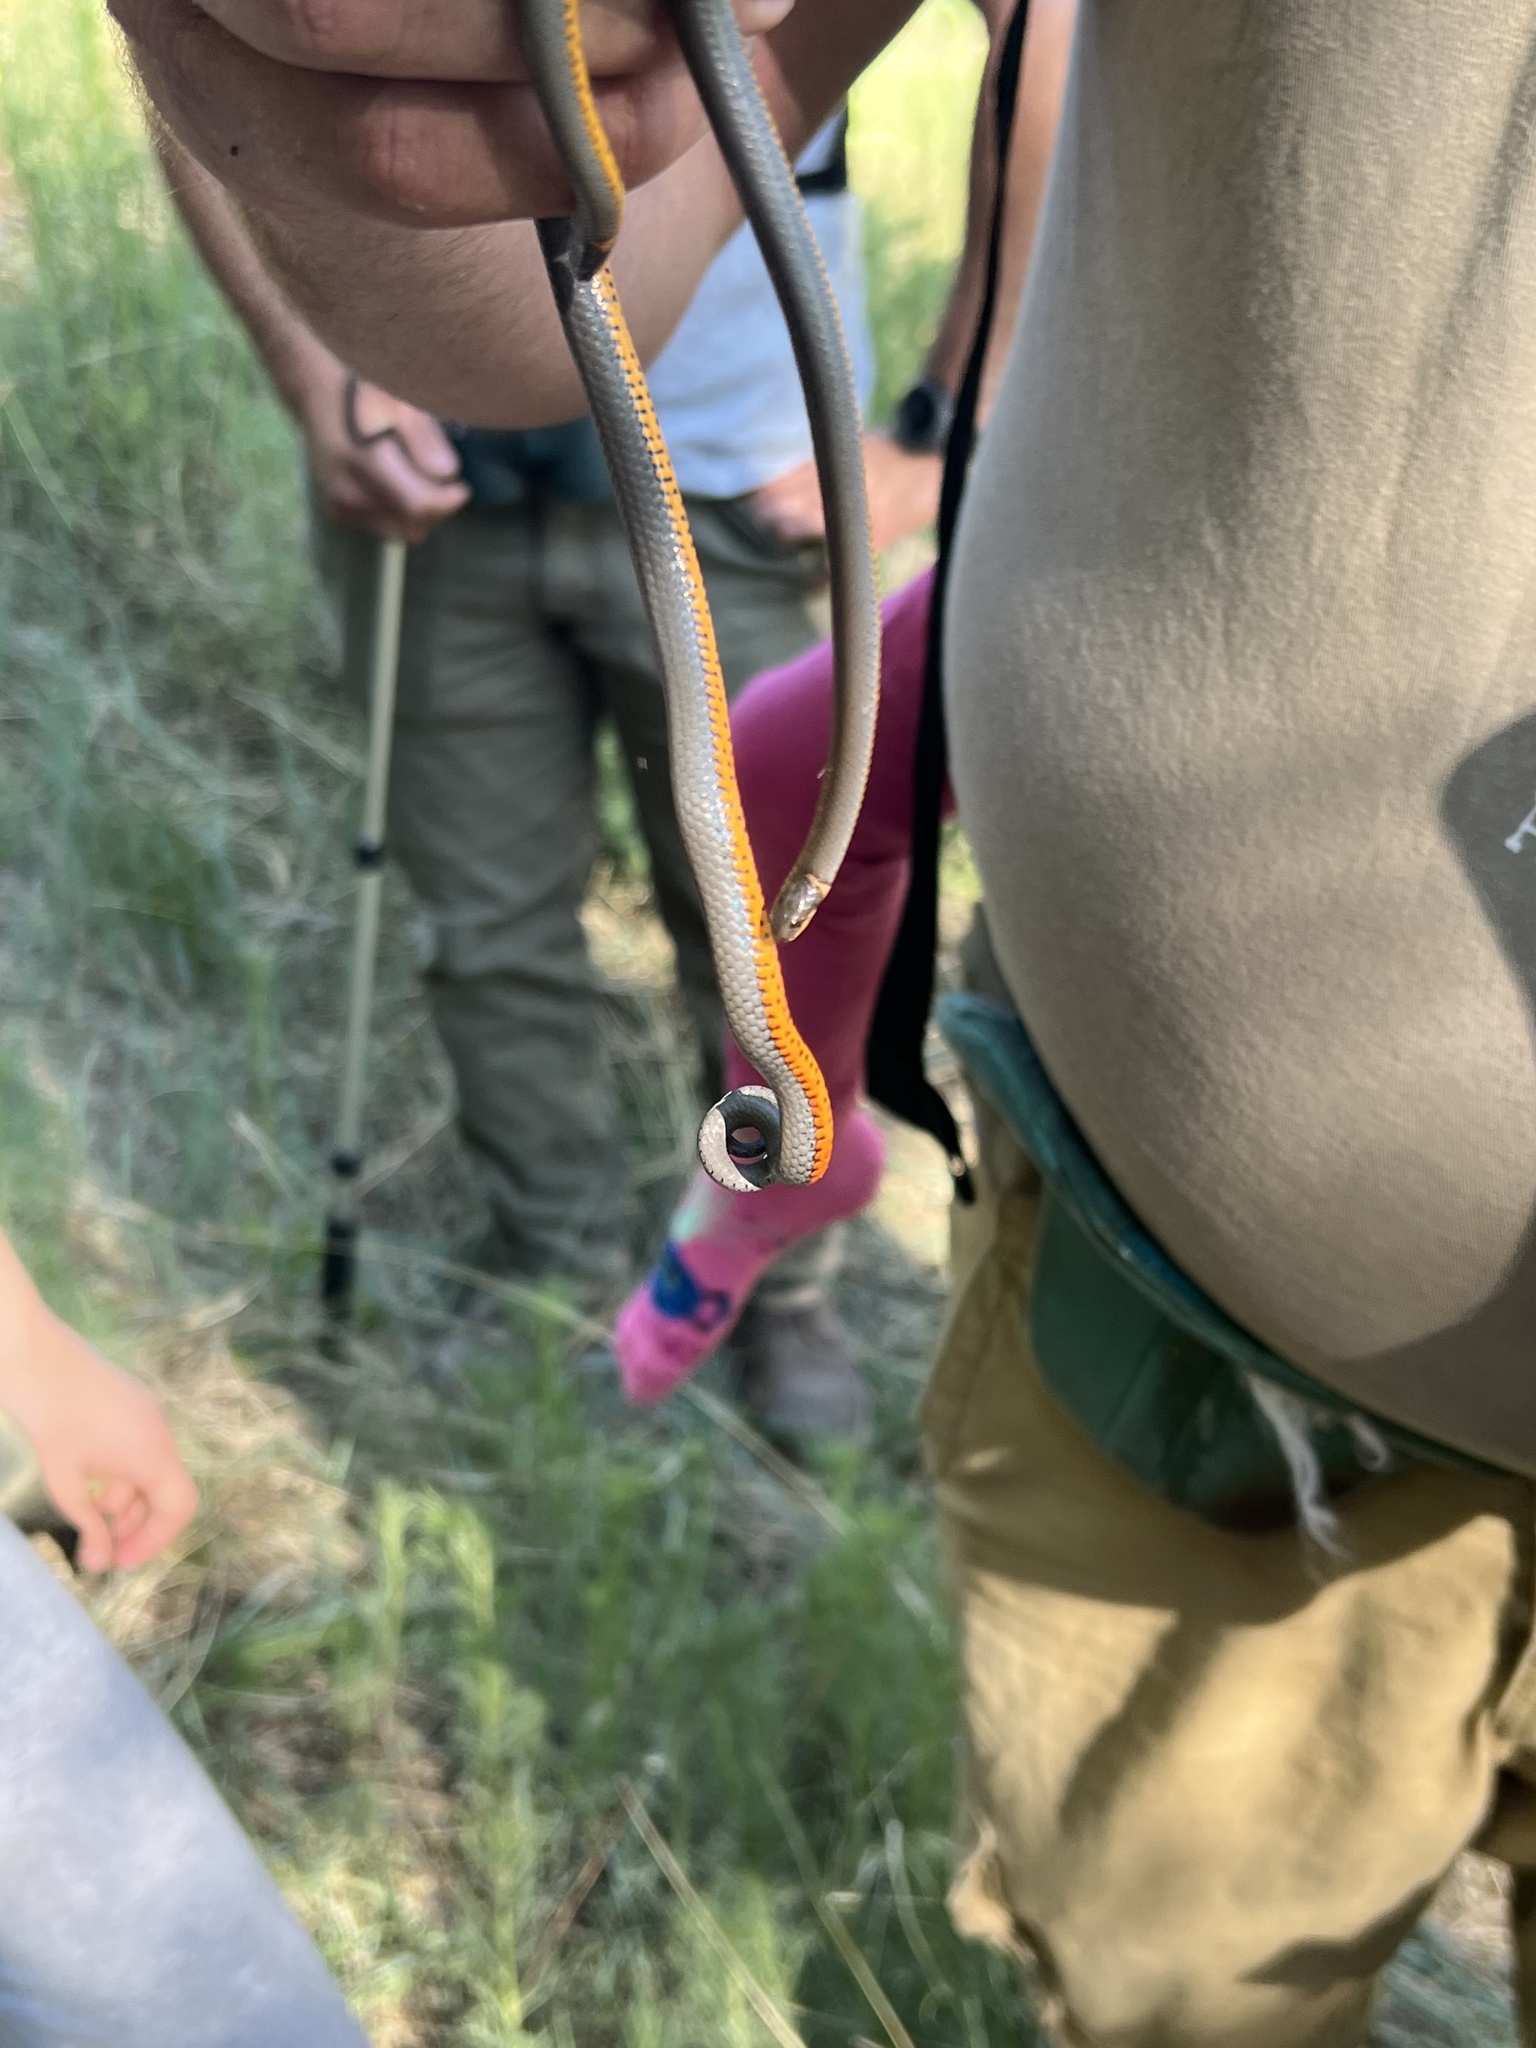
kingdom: Animalia
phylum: Chordata
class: Squamata
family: Colubridae
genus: Diadophis
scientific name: Diadophis punctatus
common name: Ringneck snake
